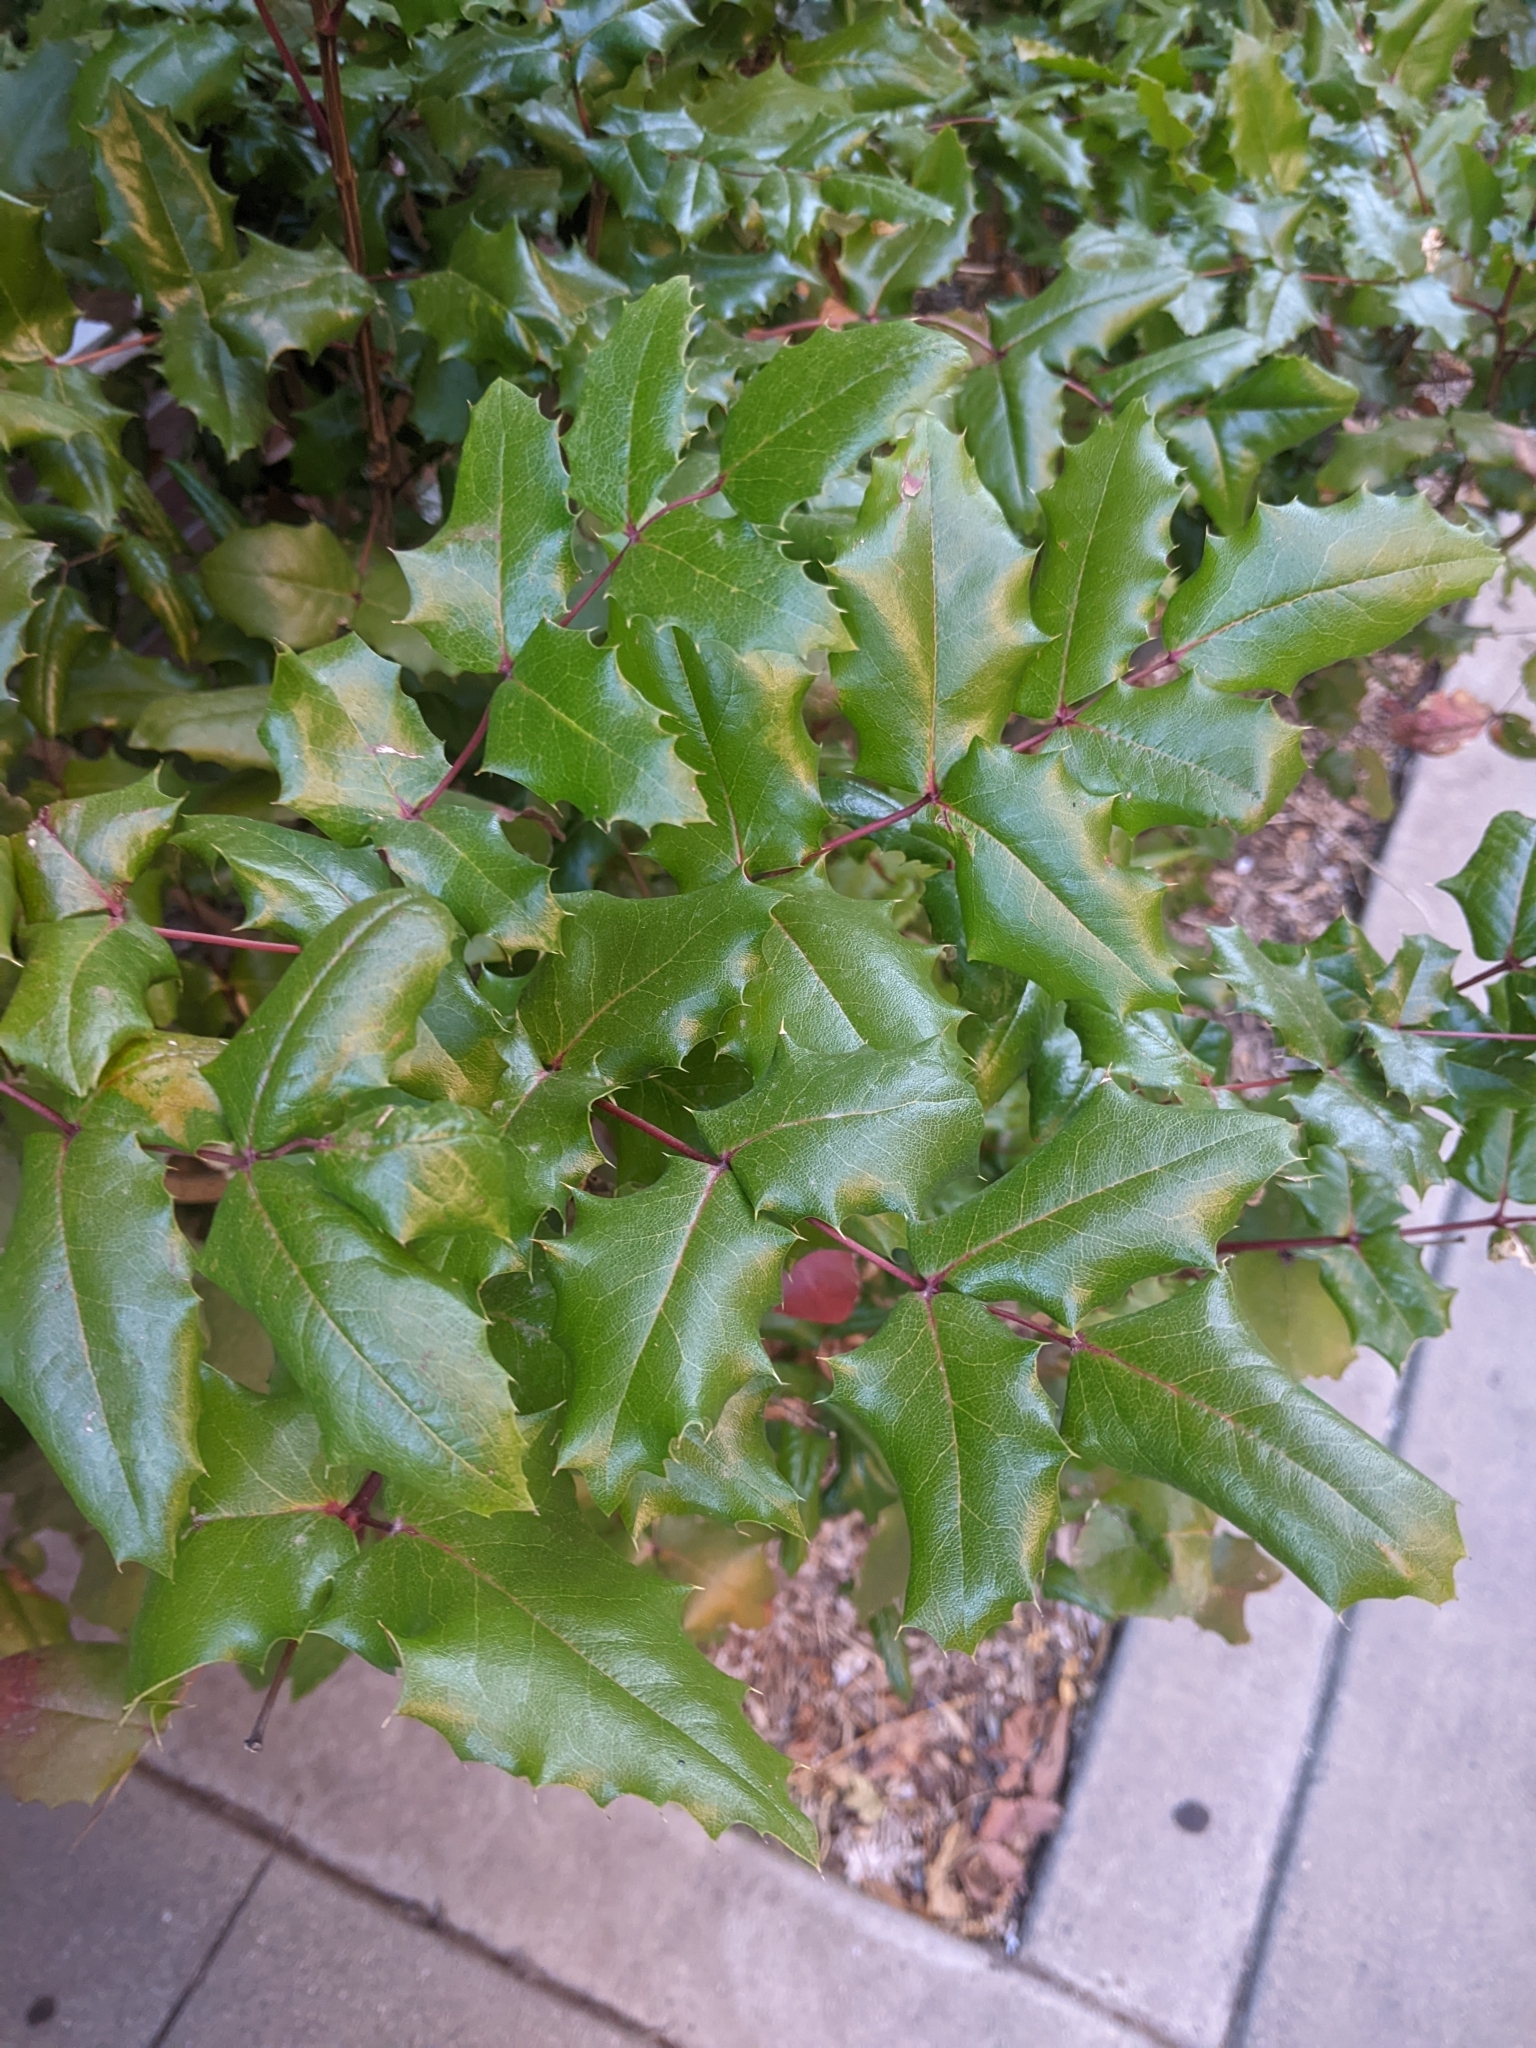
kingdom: Plantae
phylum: Tracheophyta
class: Magnoliopsida
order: Ranunculales
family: Berberidaceae
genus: Mahonia
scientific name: Mahonia aquifolium
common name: Oregon-grape
